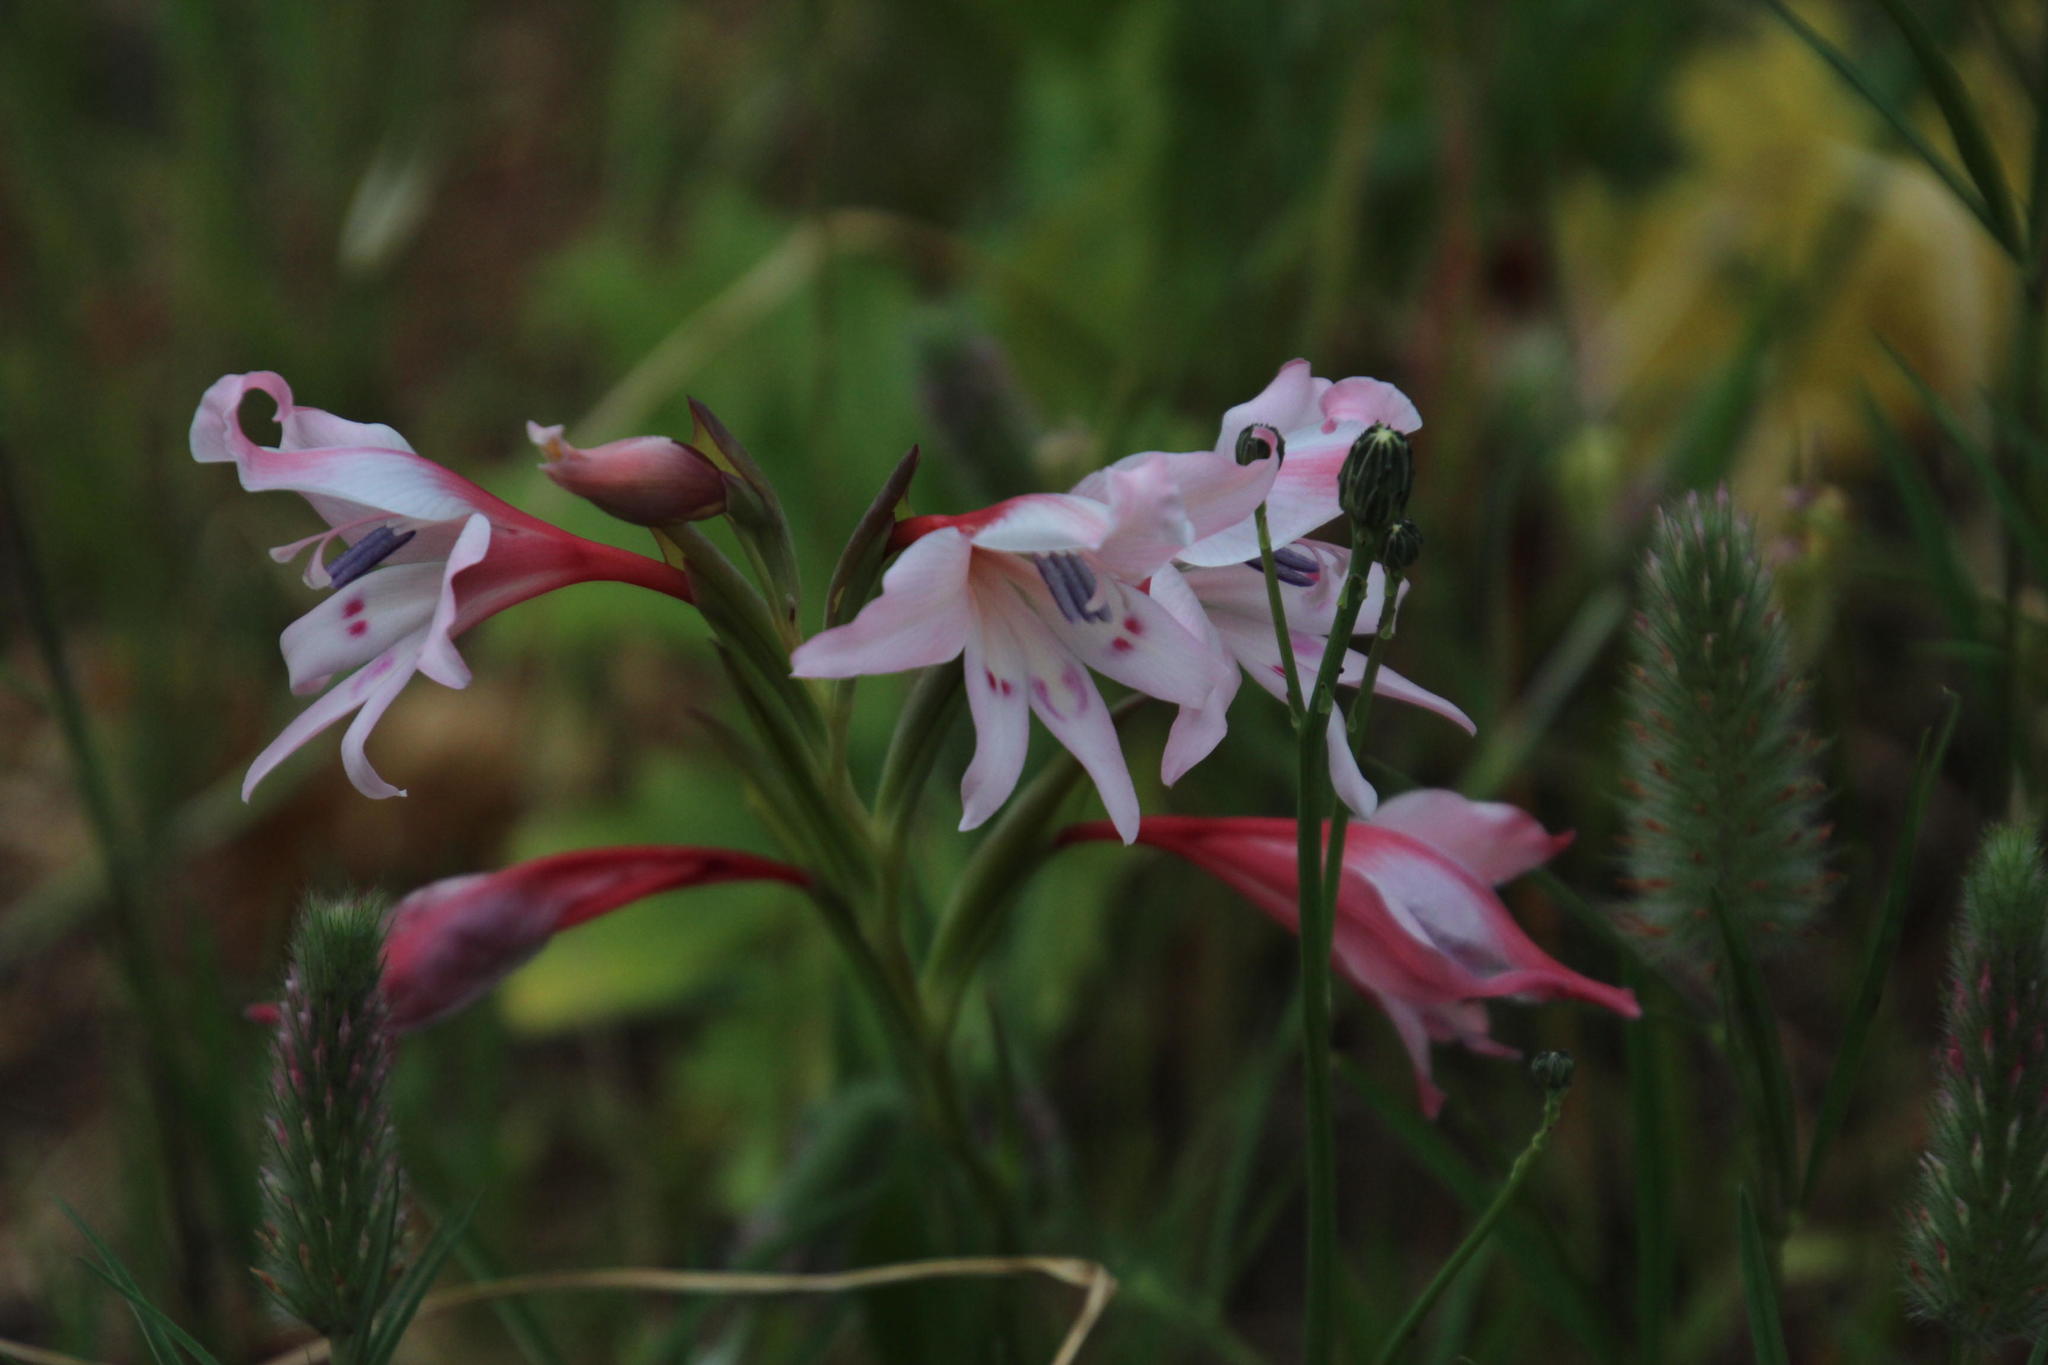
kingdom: Plantae
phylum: Tracheophyta
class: Liliopsida
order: Asparagales
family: Iridaceae
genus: Gladiolus
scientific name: Gladiolus carneus
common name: Painted-lady
